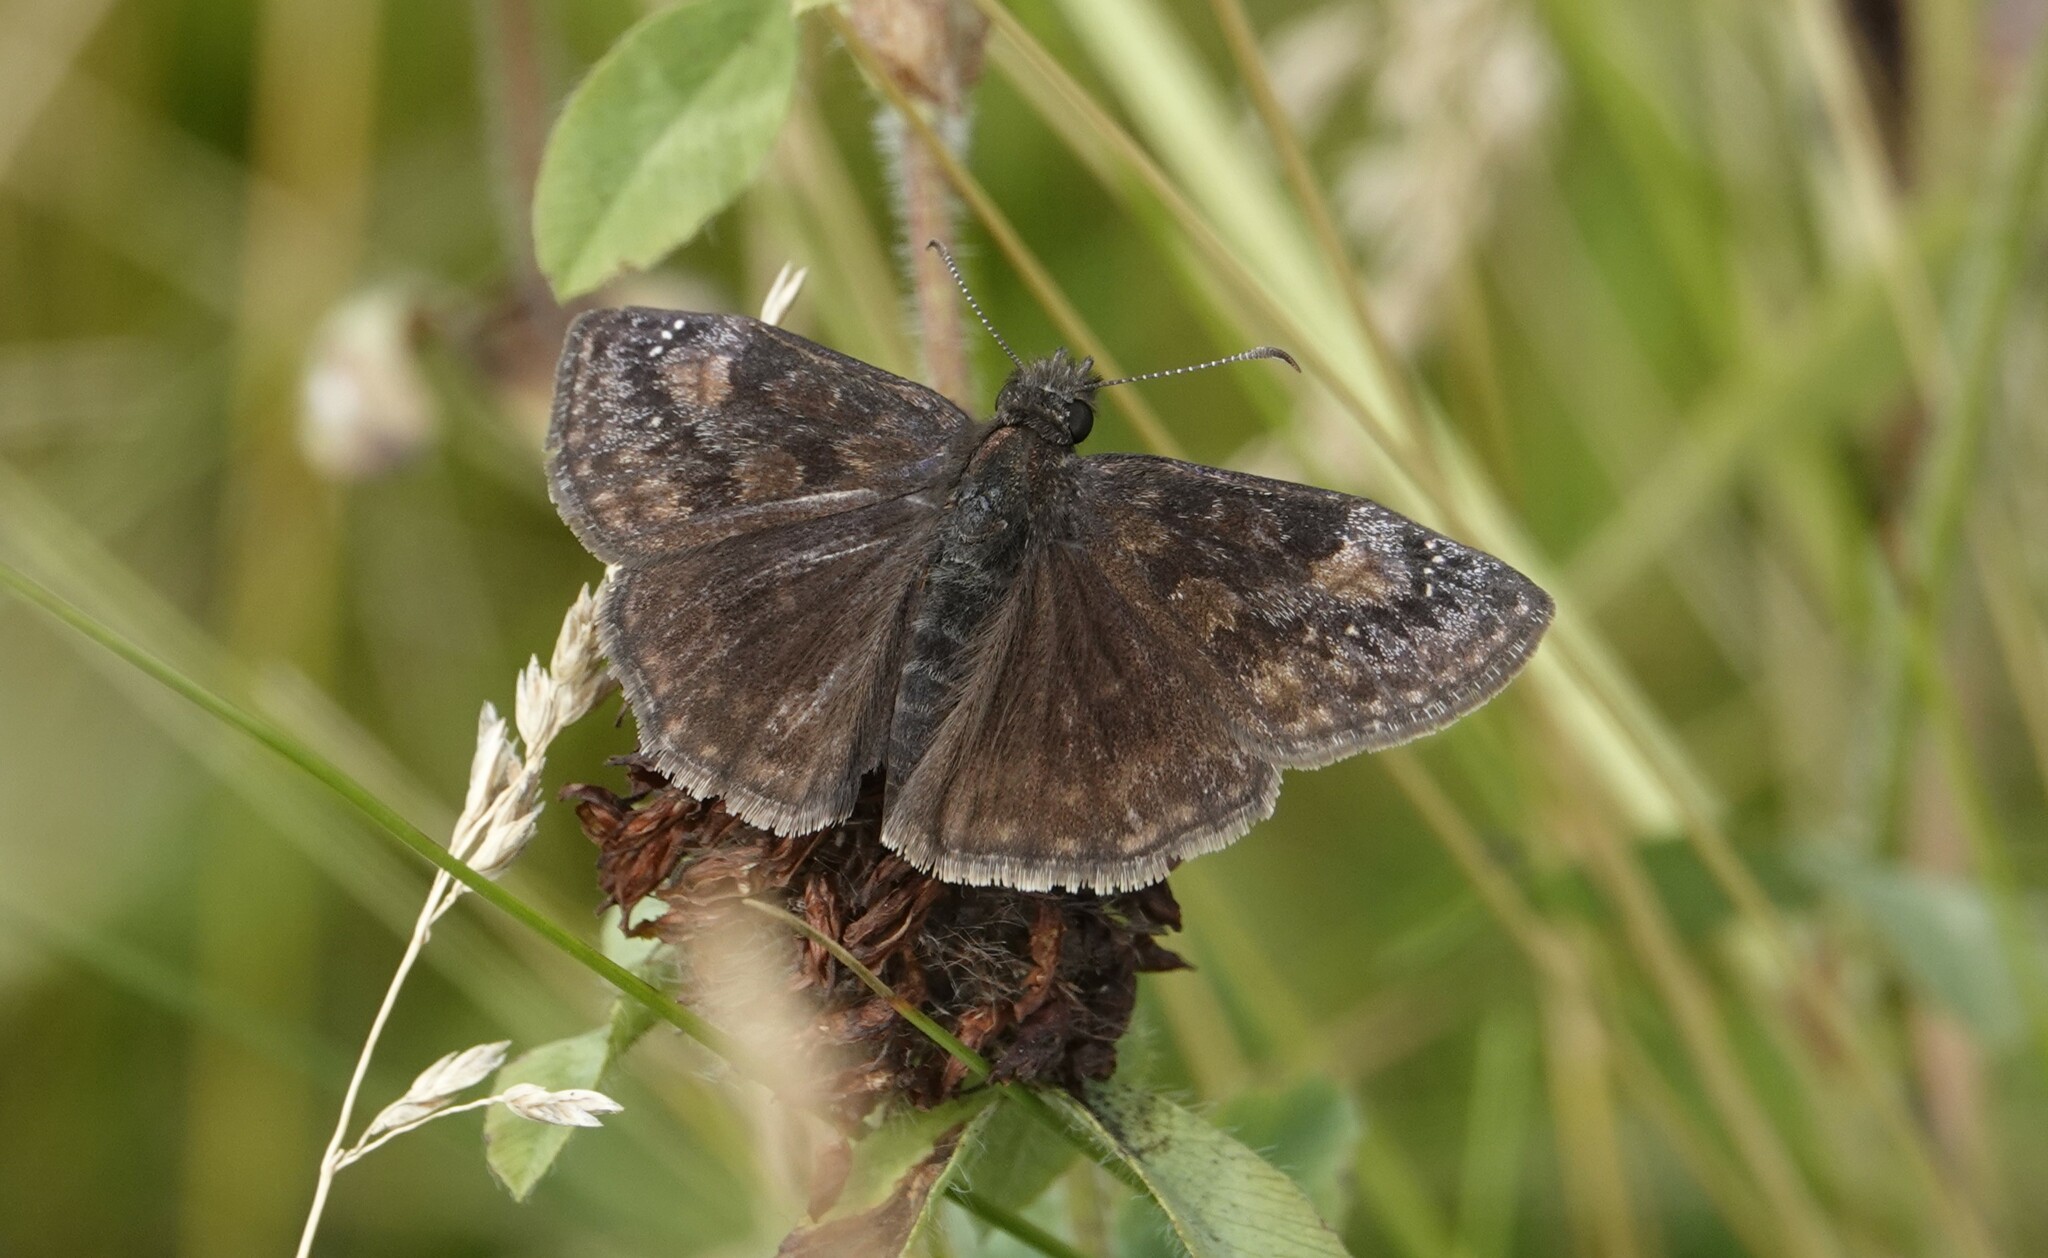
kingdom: Animalia
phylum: Arthropoda
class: Insecta
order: Lepidoptera
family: Hesperiidae
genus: Erynnis
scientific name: Erynnis baptisiae
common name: Wild indigo duskywing
